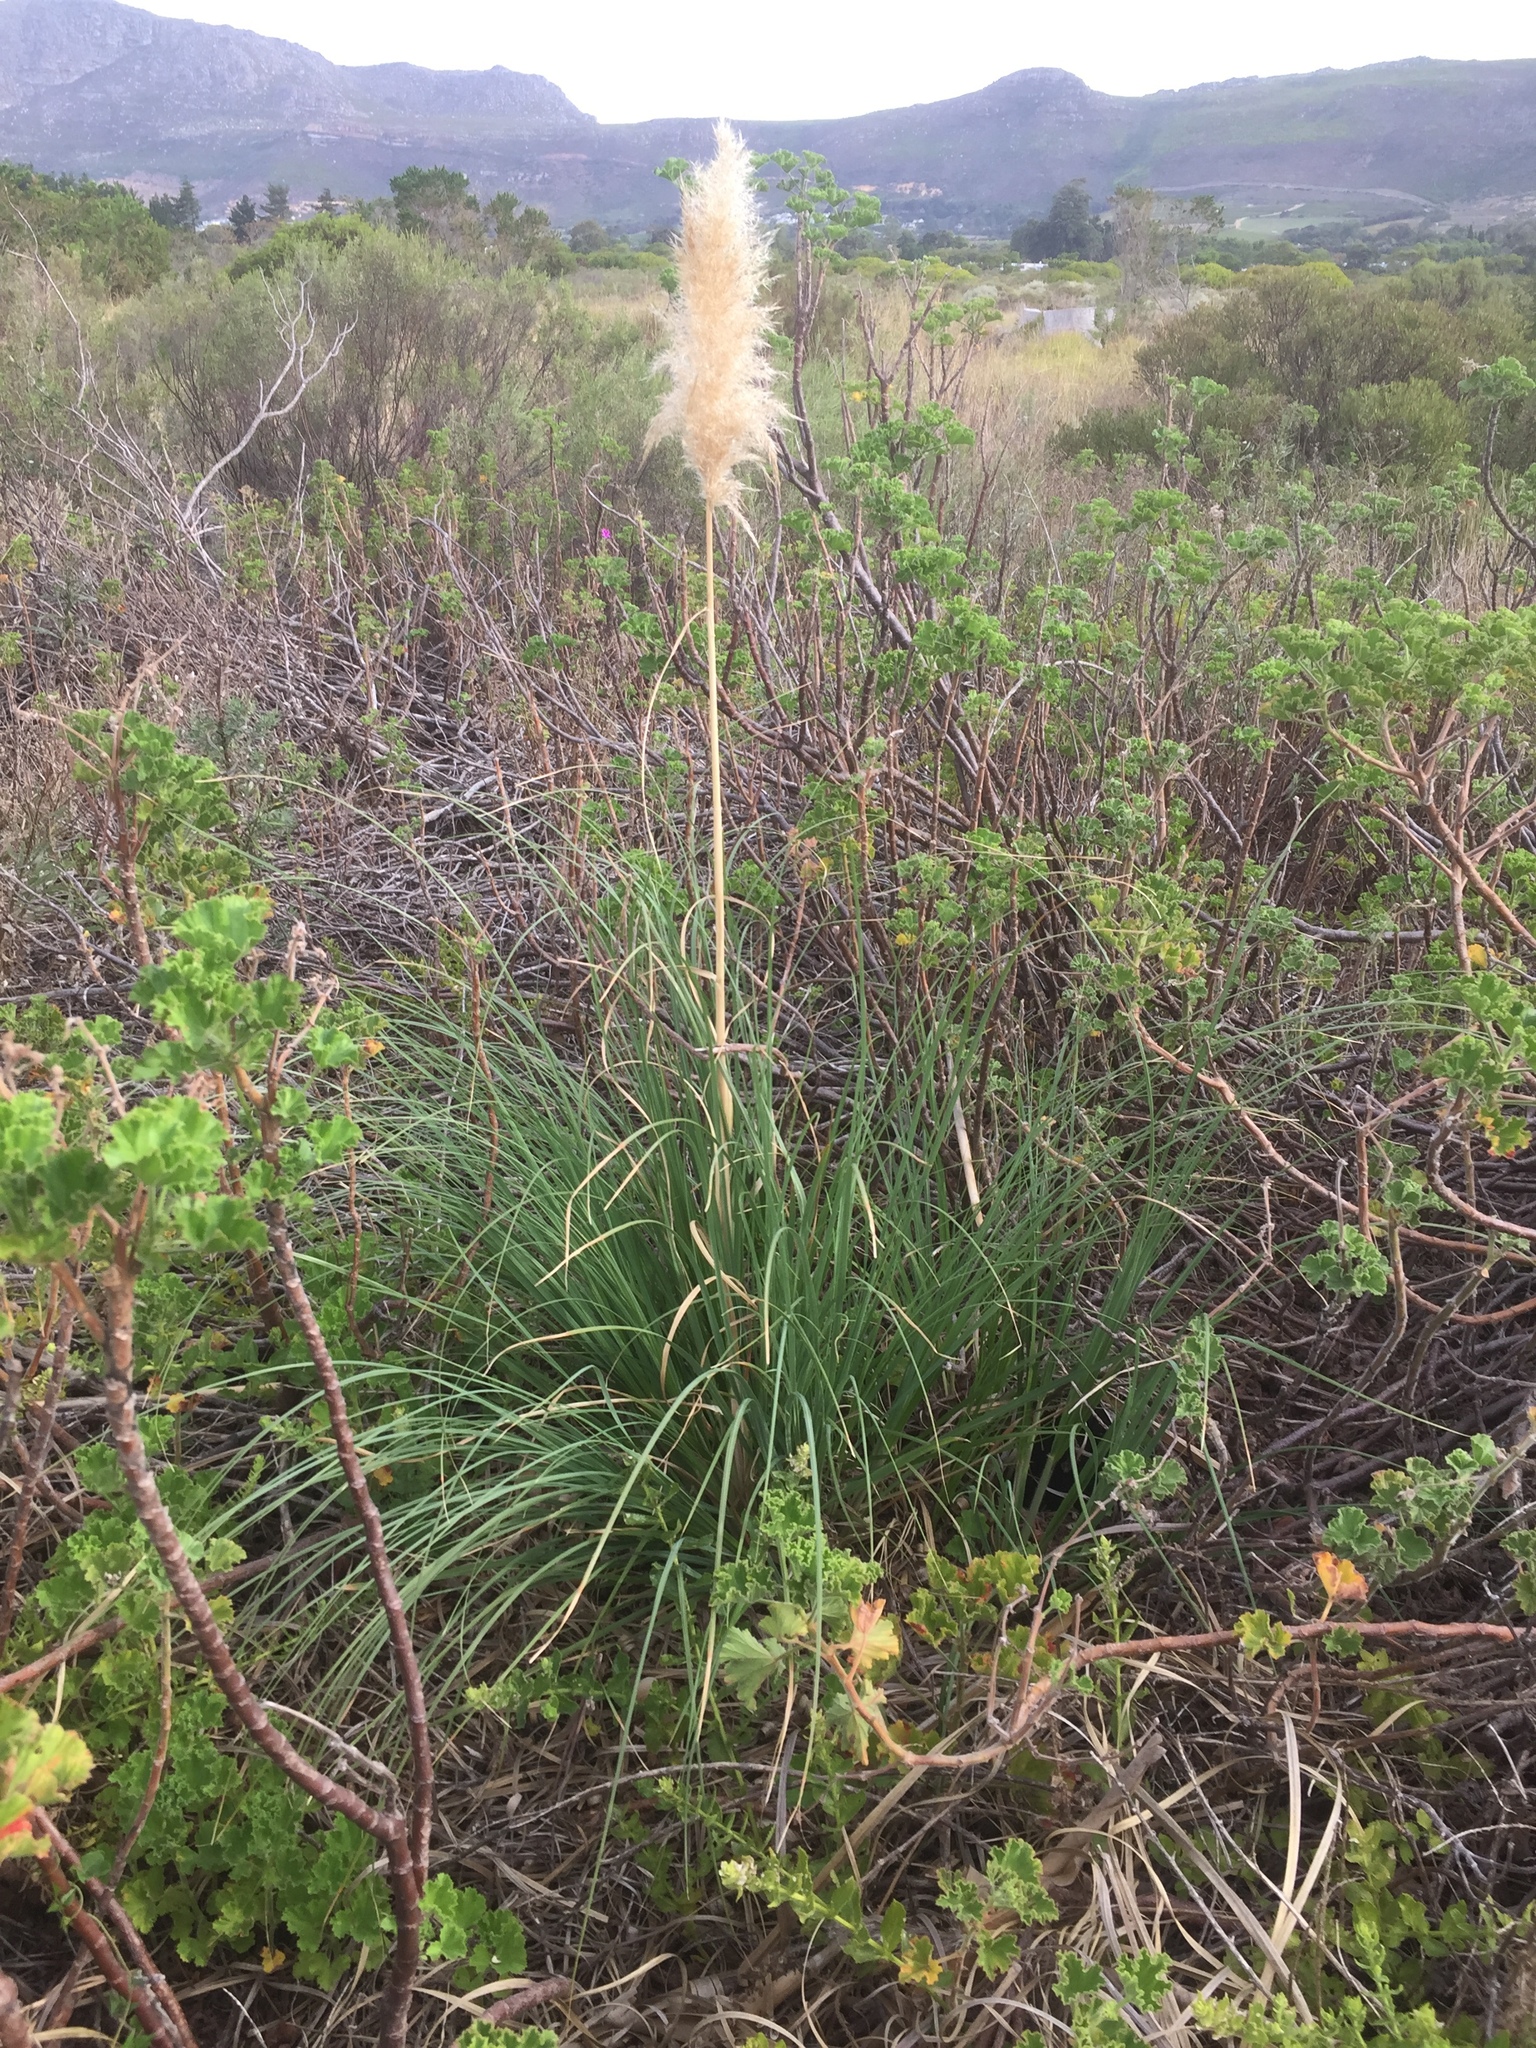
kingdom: Plantae
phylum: Tracheophyta
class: Liliopsida
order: Poales
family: Poaceae
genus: Cortaderia
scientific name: Cortaderia selloana
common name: Uruguayan pampas grass
